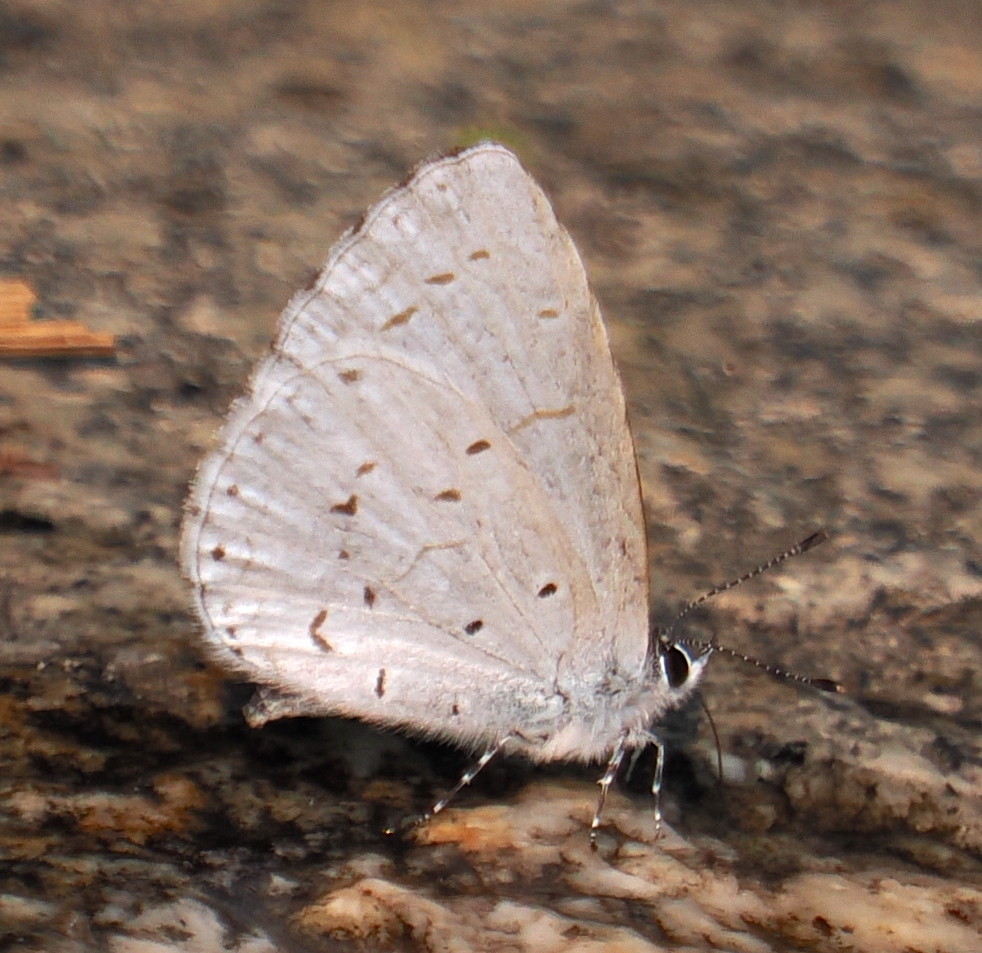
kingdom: Animalia
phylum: Arthropoda
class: Insecta
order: Lepidoptera
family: Lycaenidae
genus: Udara
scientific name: Udara dilectus
